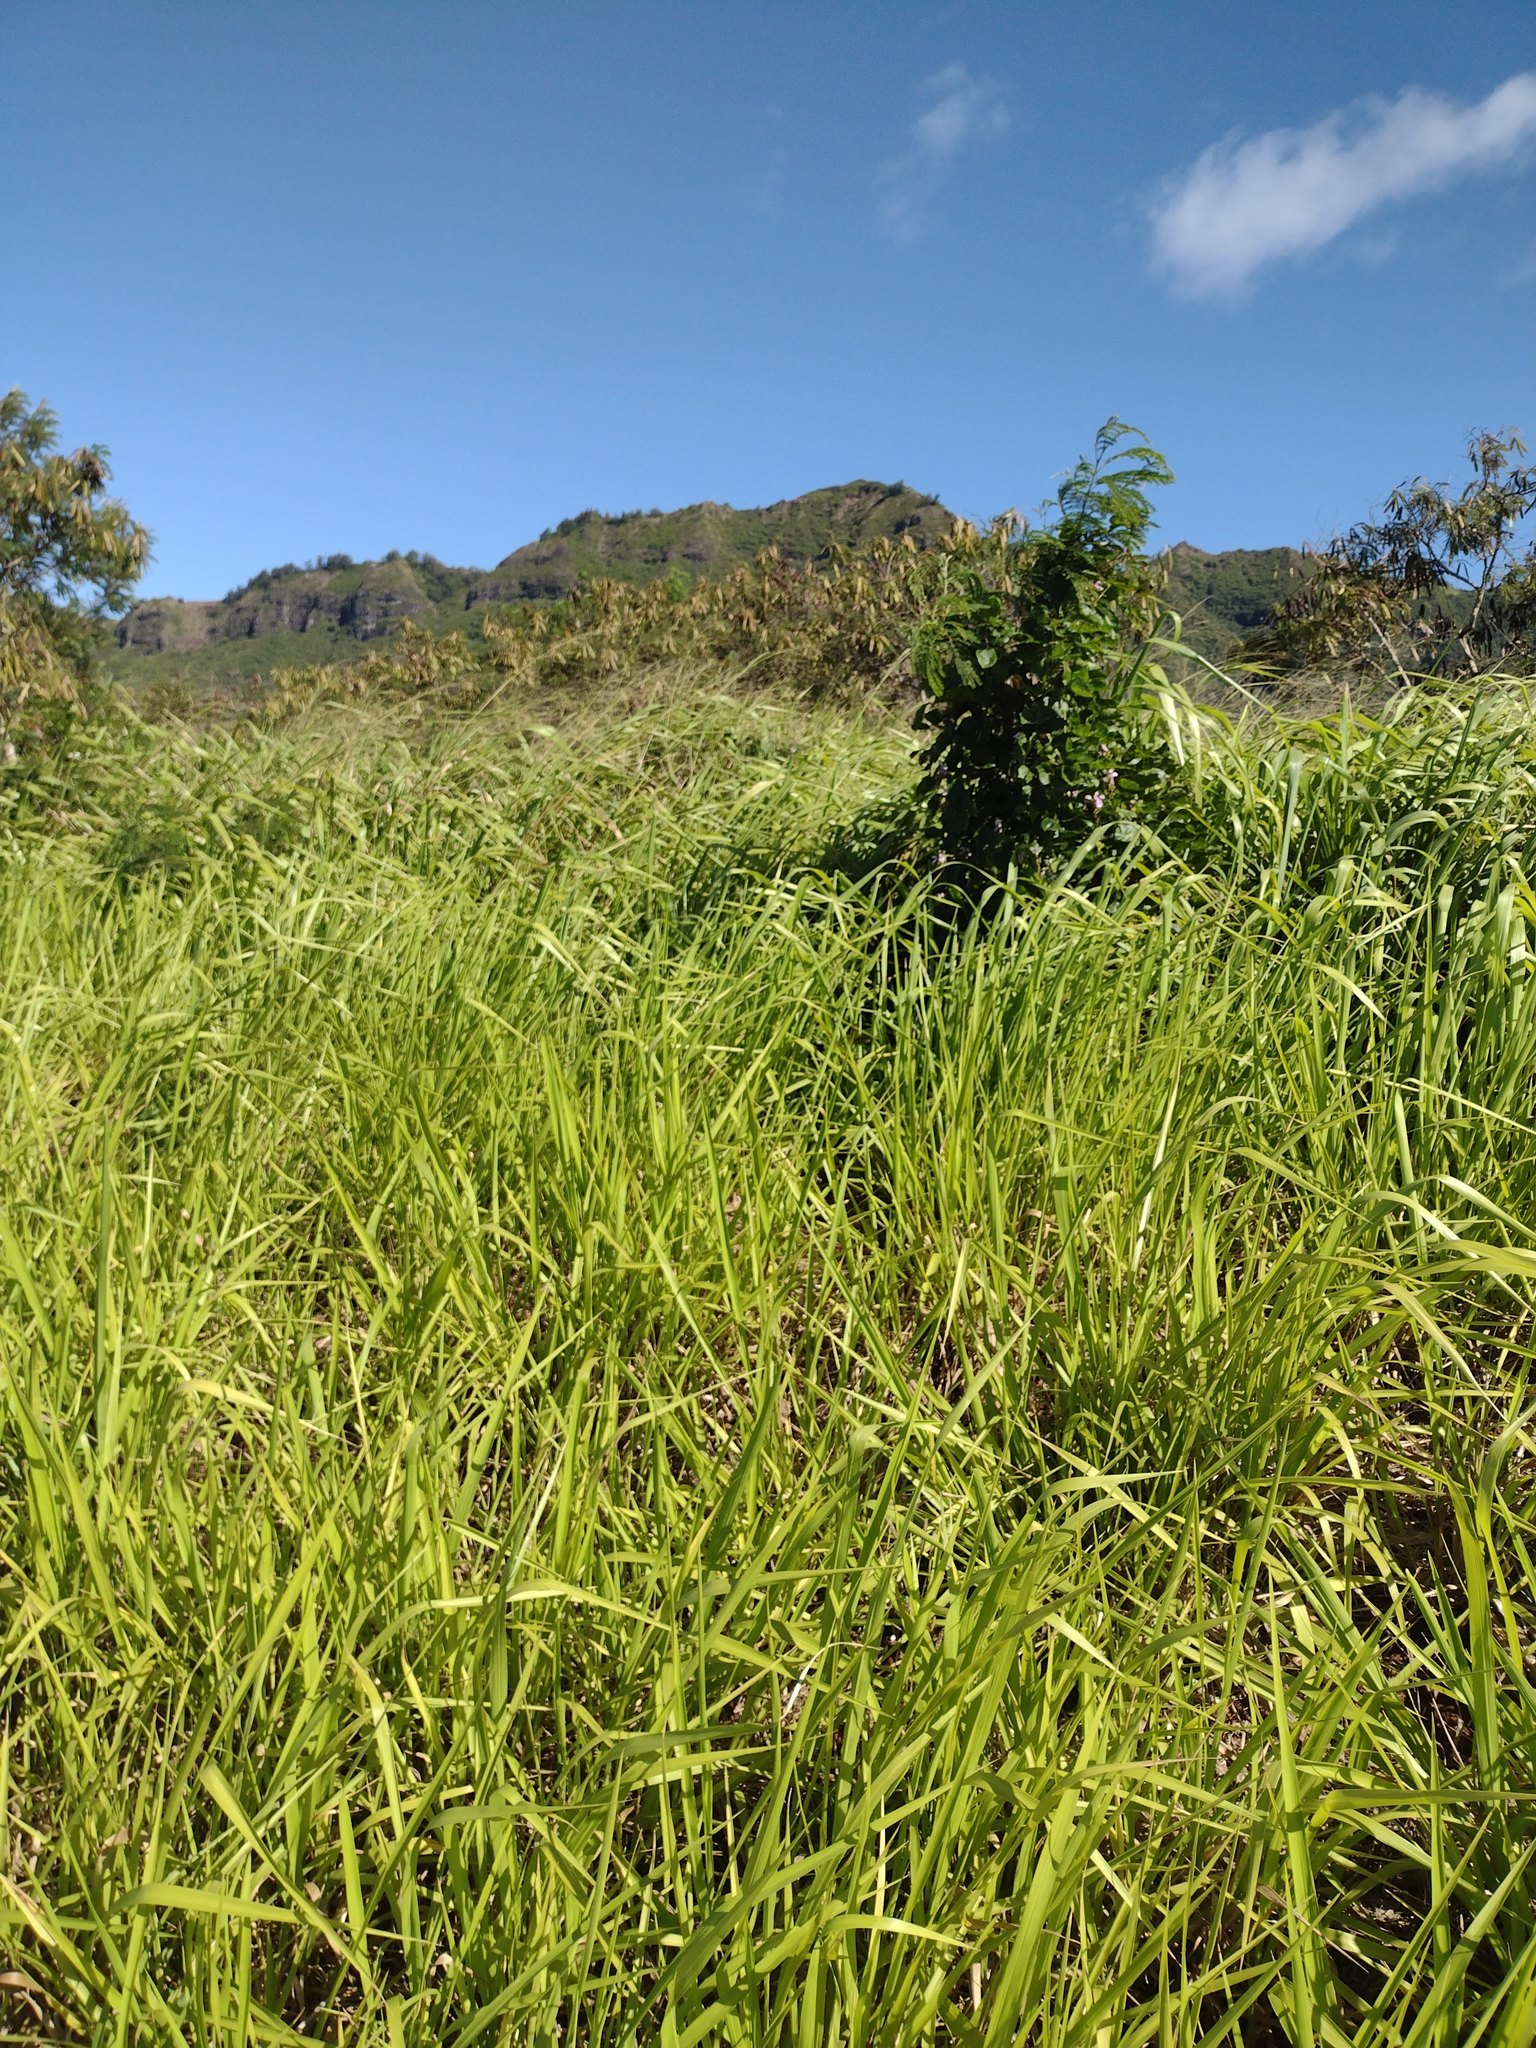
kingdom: Plantae
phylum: Tracheophyta
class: Liliopsida
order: Poales
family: Poaceae
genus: Megathyrsus
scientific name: Megathyrsus maximus
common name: Guineagrass
